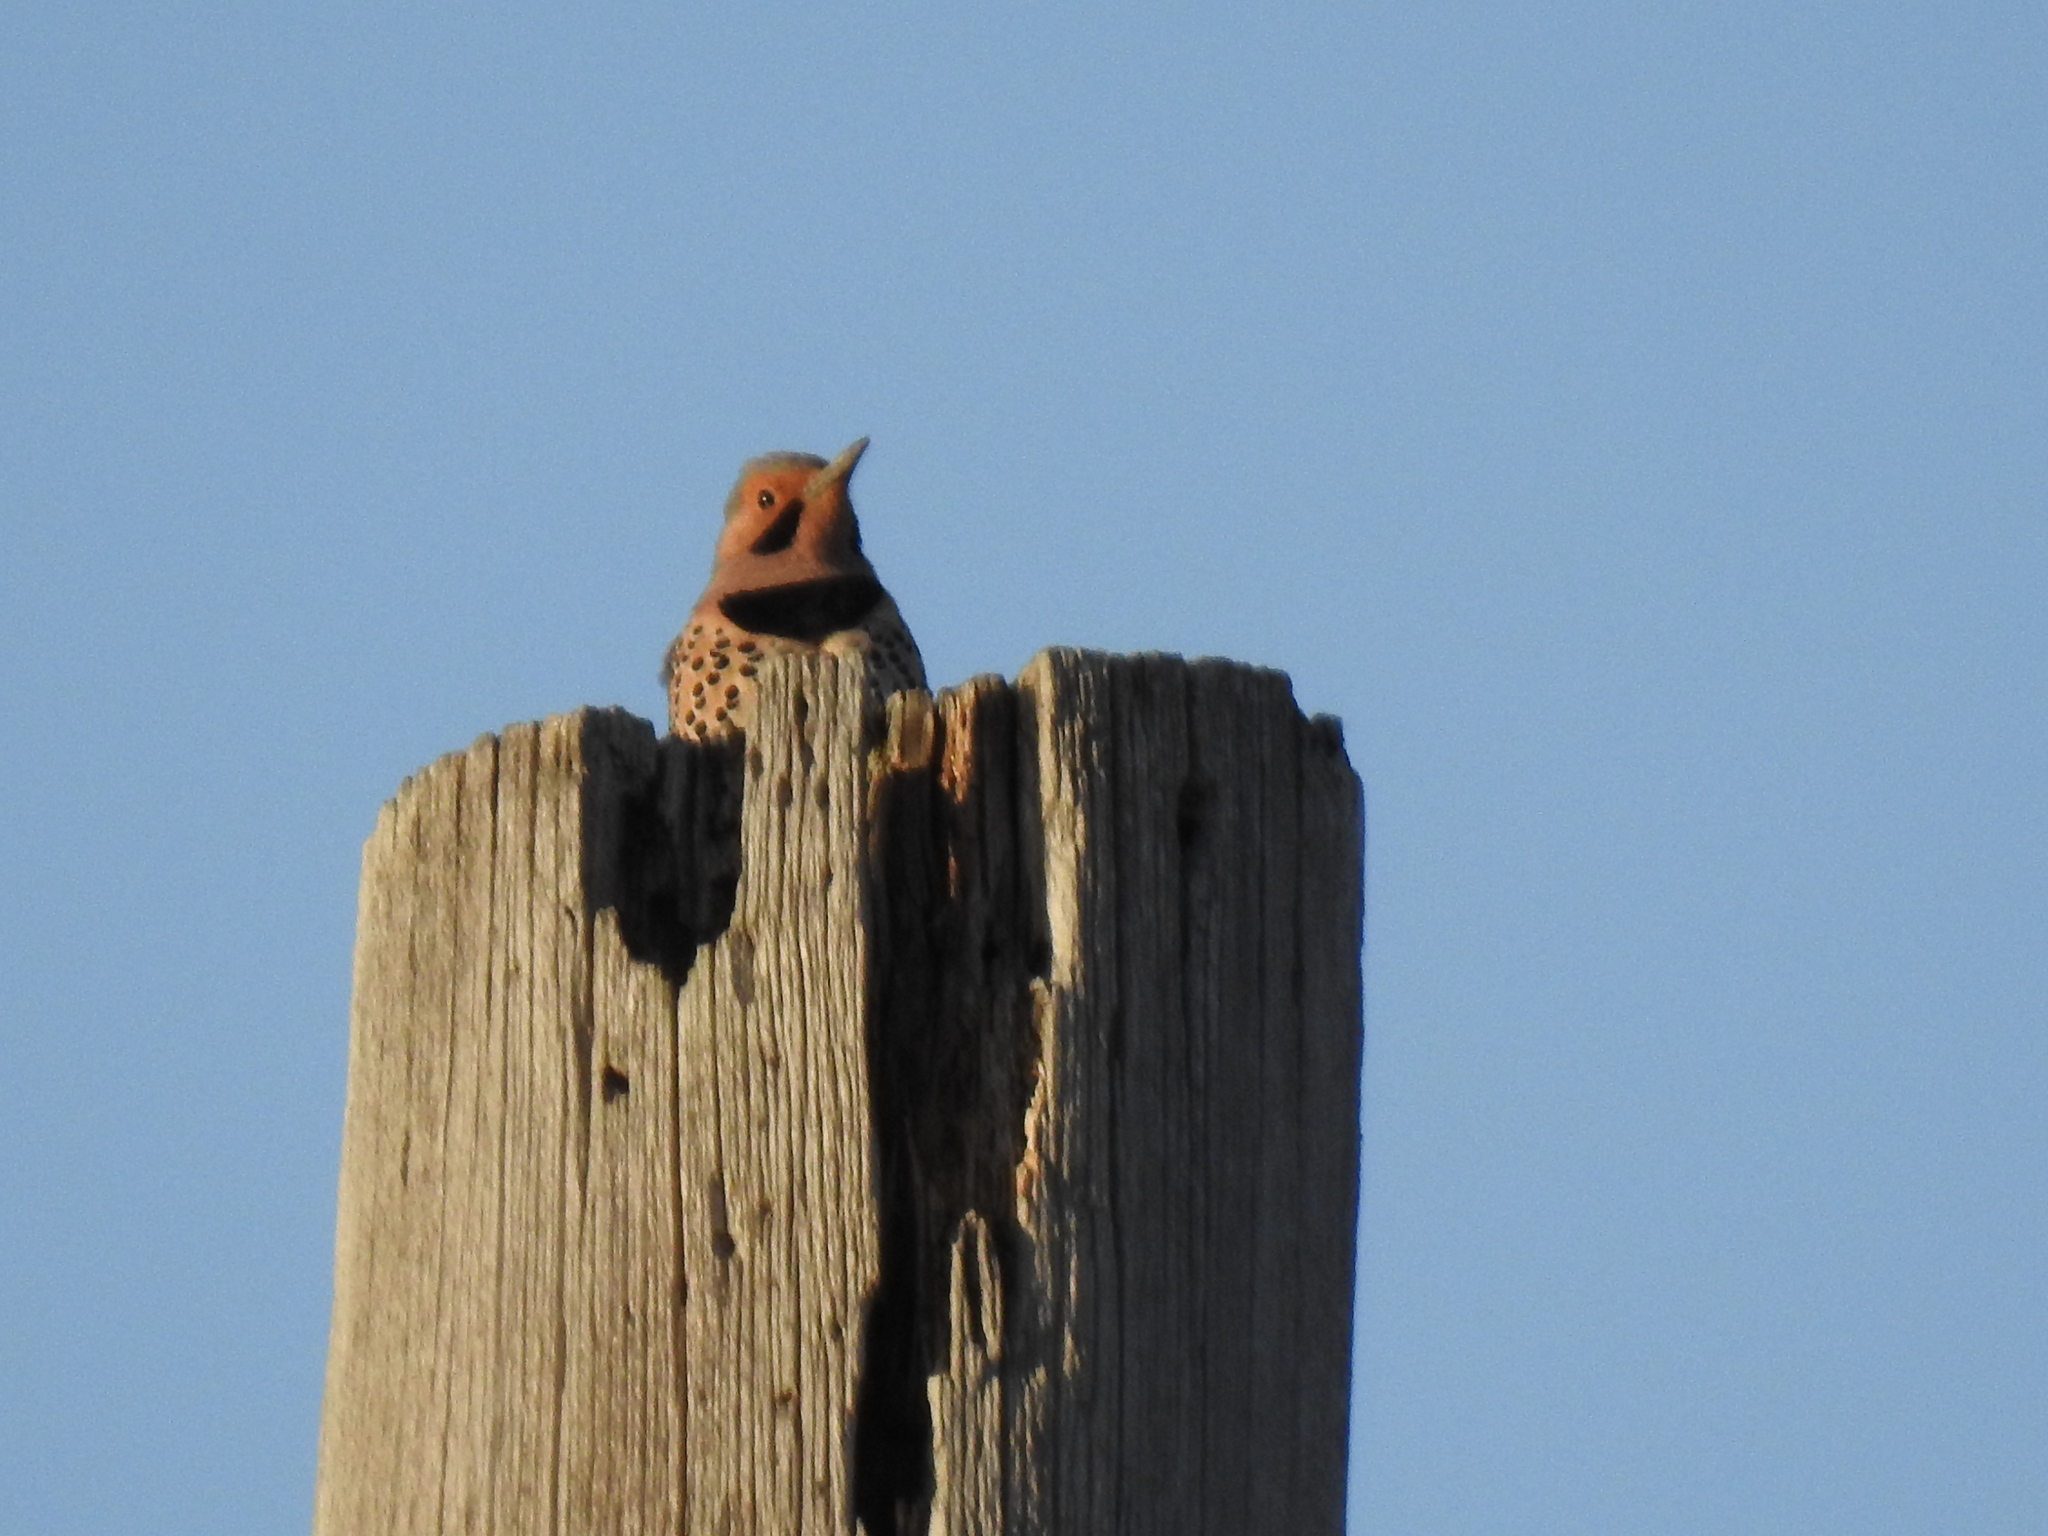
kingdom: Animalia
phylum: Chordata
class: Aves
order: Piciformes
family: Picidae
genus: Colaptes
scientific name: Colaptes auratus
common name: Northern flicker
